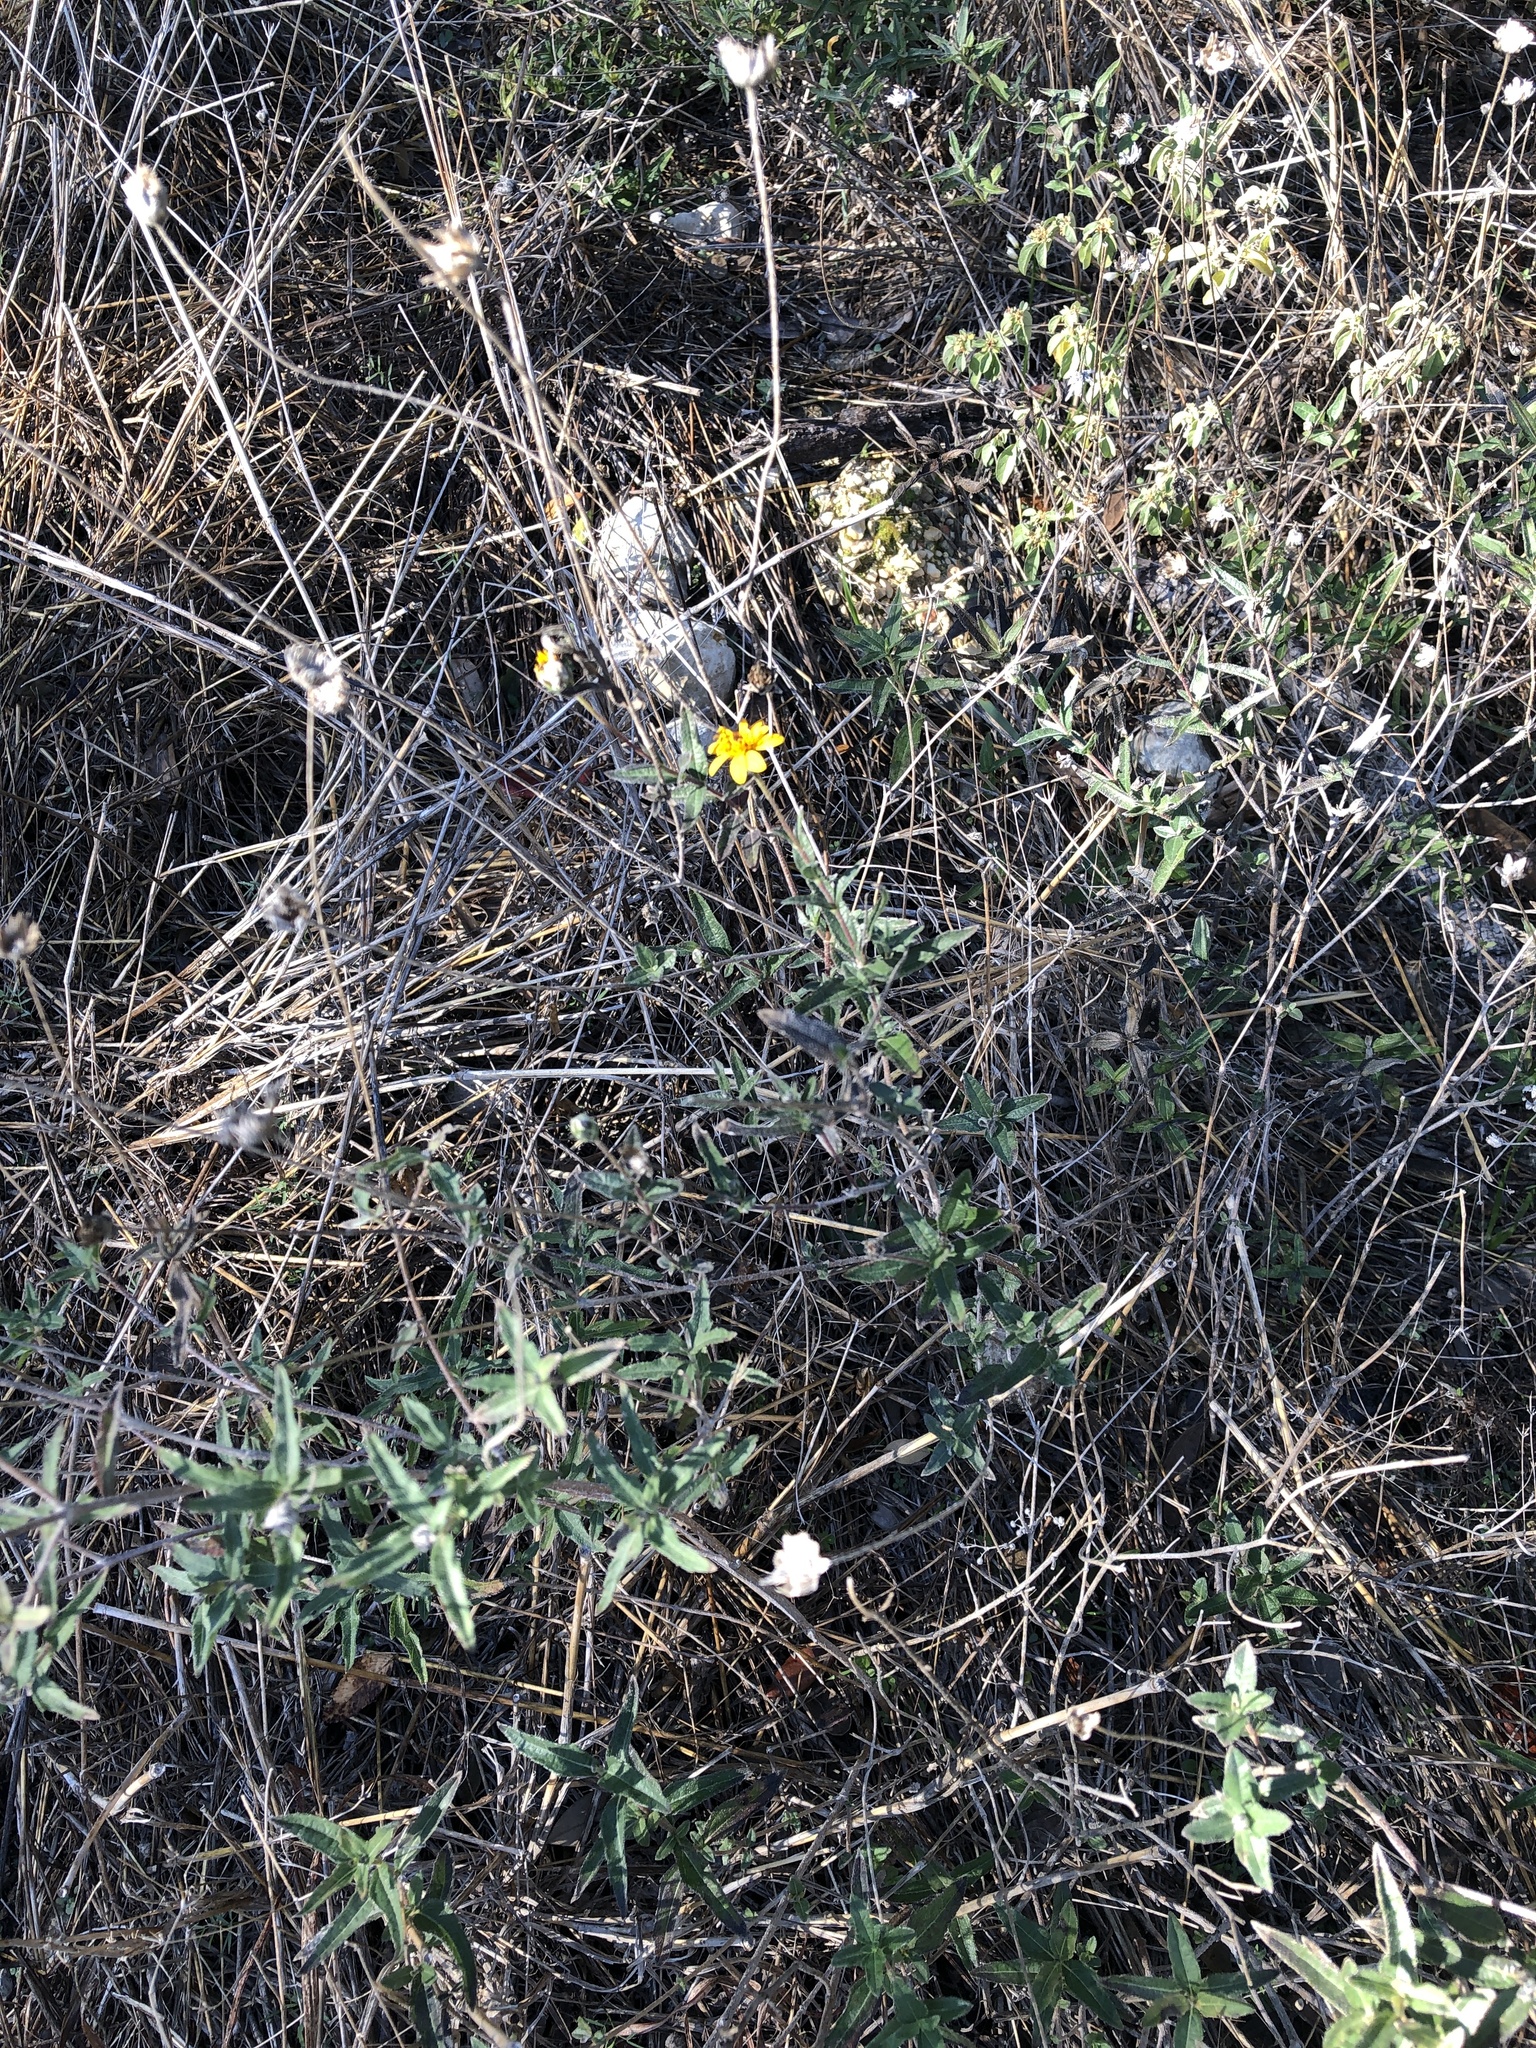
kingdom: Plantae
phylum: Tracheophyta
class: Magnoliopsida
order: Asterales
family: Asteraceae
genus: Wedelia
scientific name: Wedelia acapulcensis
